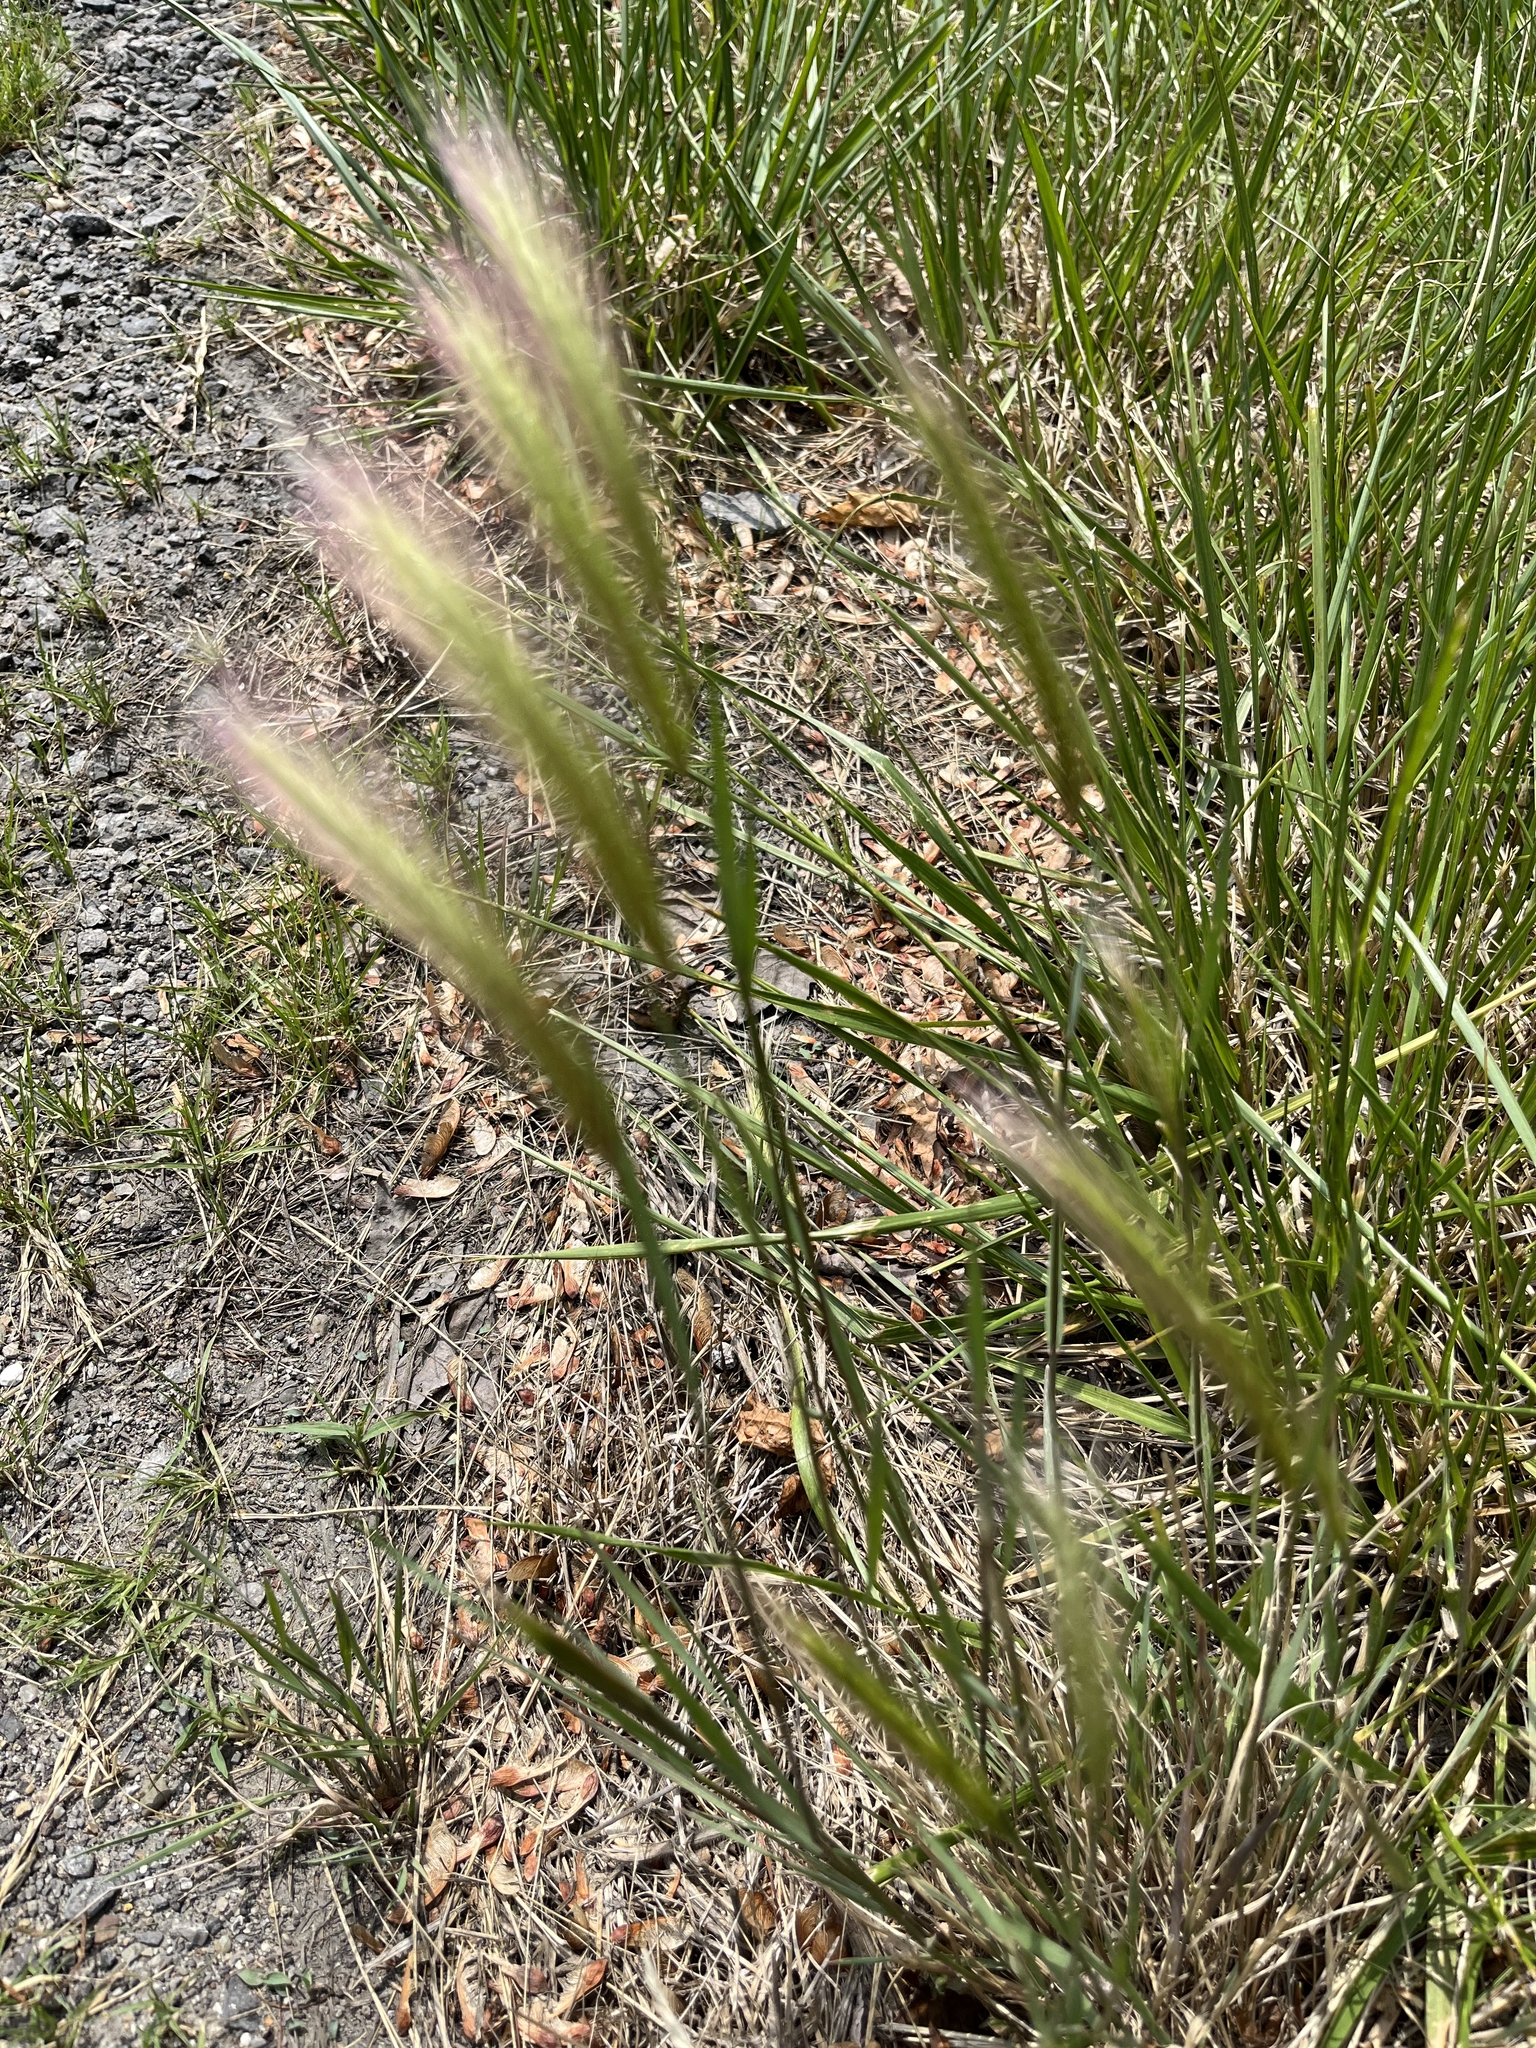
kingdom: Plantae
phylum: Tracheophyta
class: Liliopsida
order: Poales
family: Poaceae
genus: Hordeum
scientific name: Hordeum jubatum
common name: Foxtail barley
